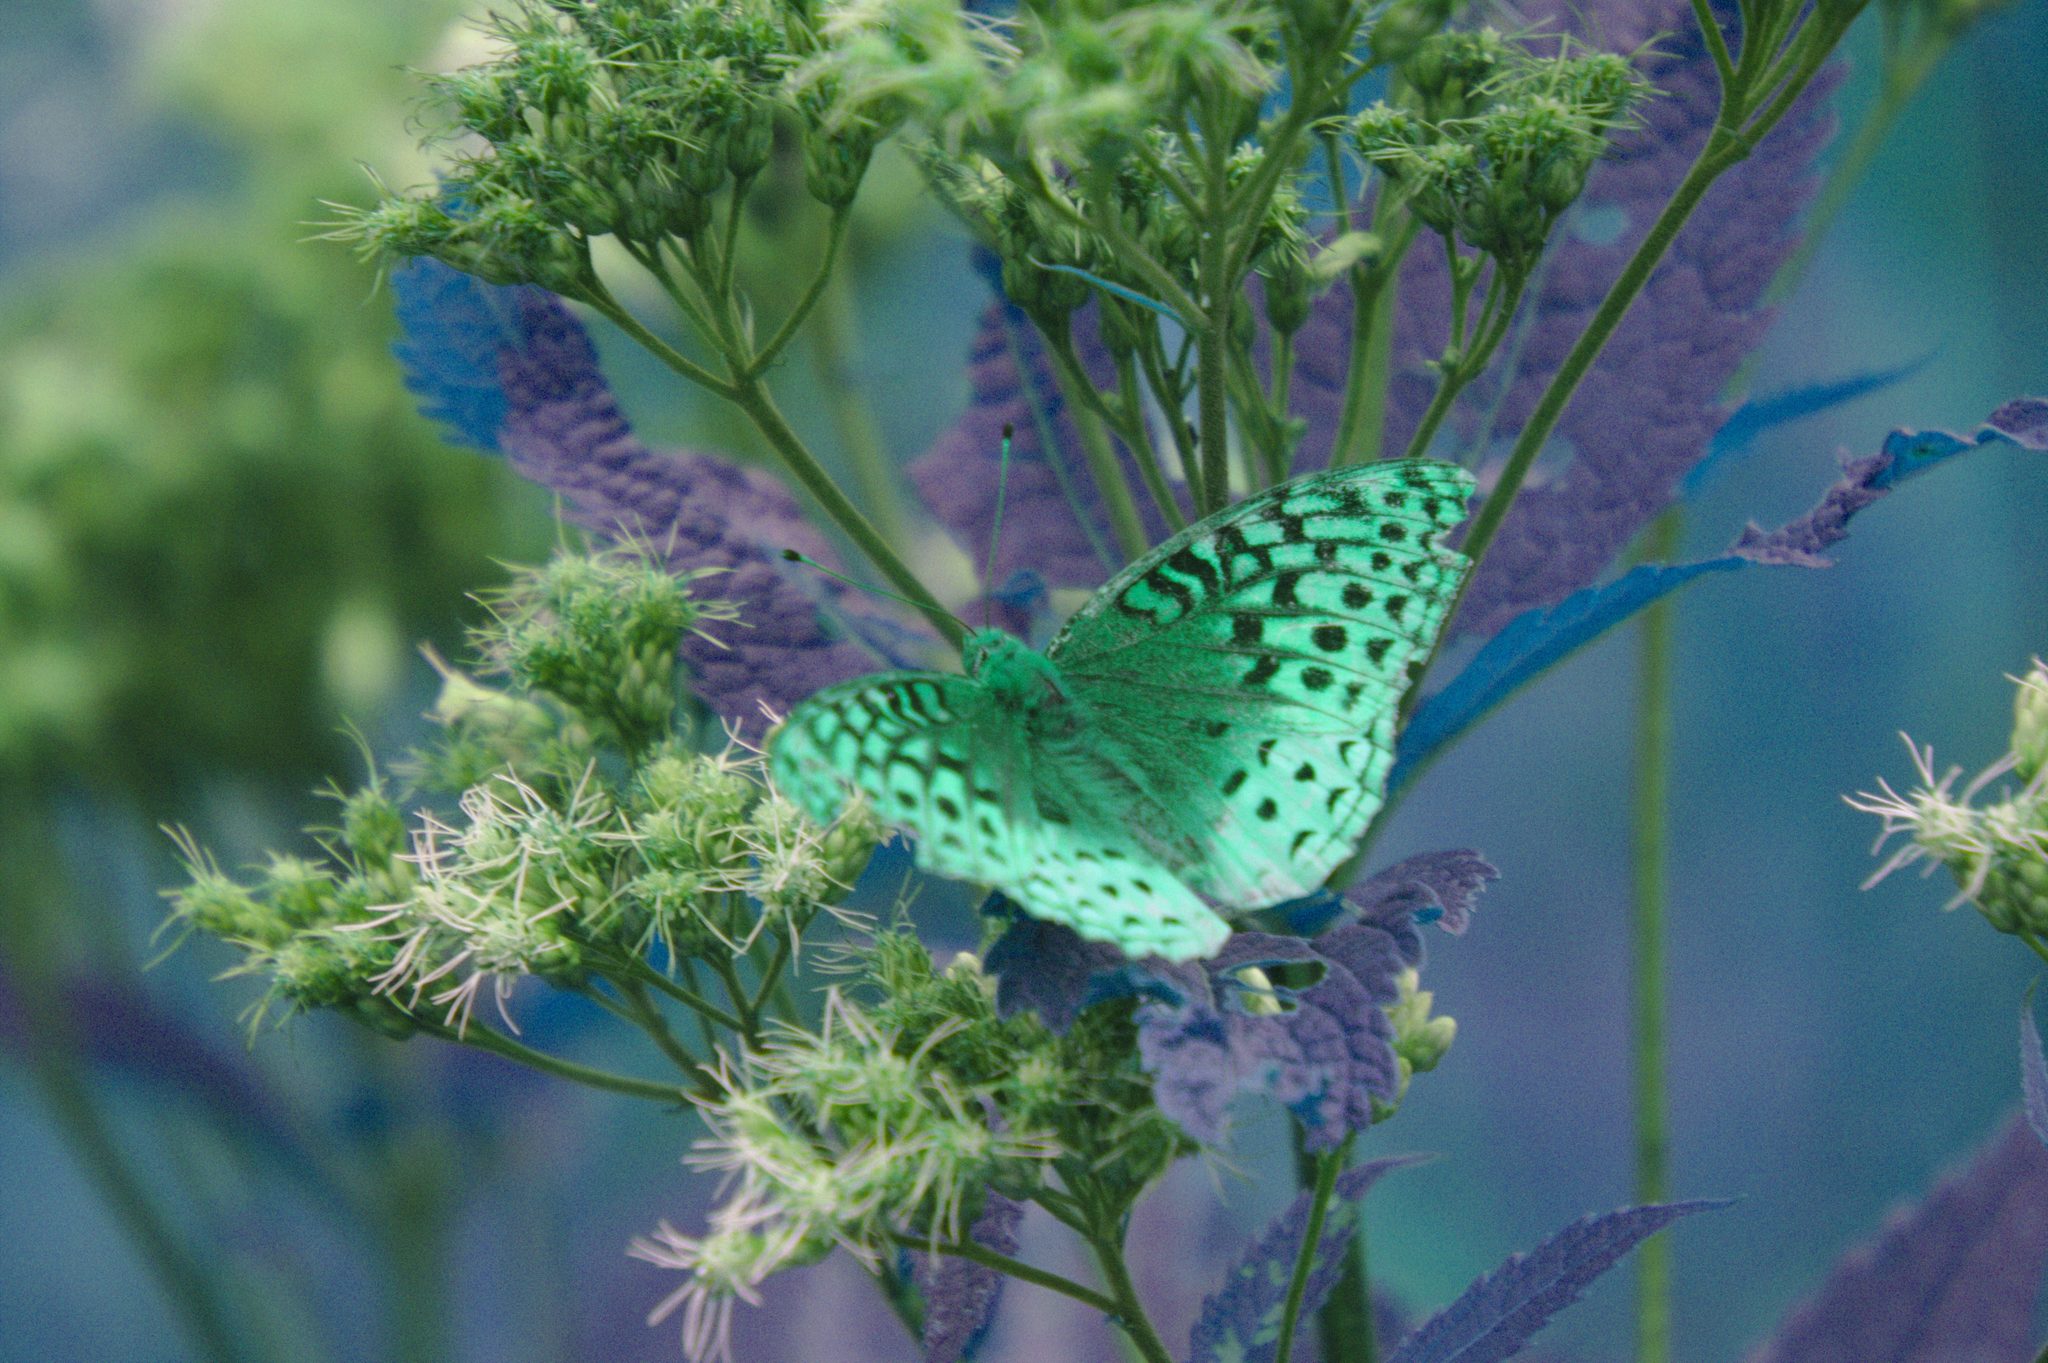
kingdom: Animalia
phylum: Arthropoda
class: Insecta
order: Lepidoptera
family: Nymphalidae
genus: Speyeria
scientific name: Speyeria cybele
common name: Great spangled fritillary
